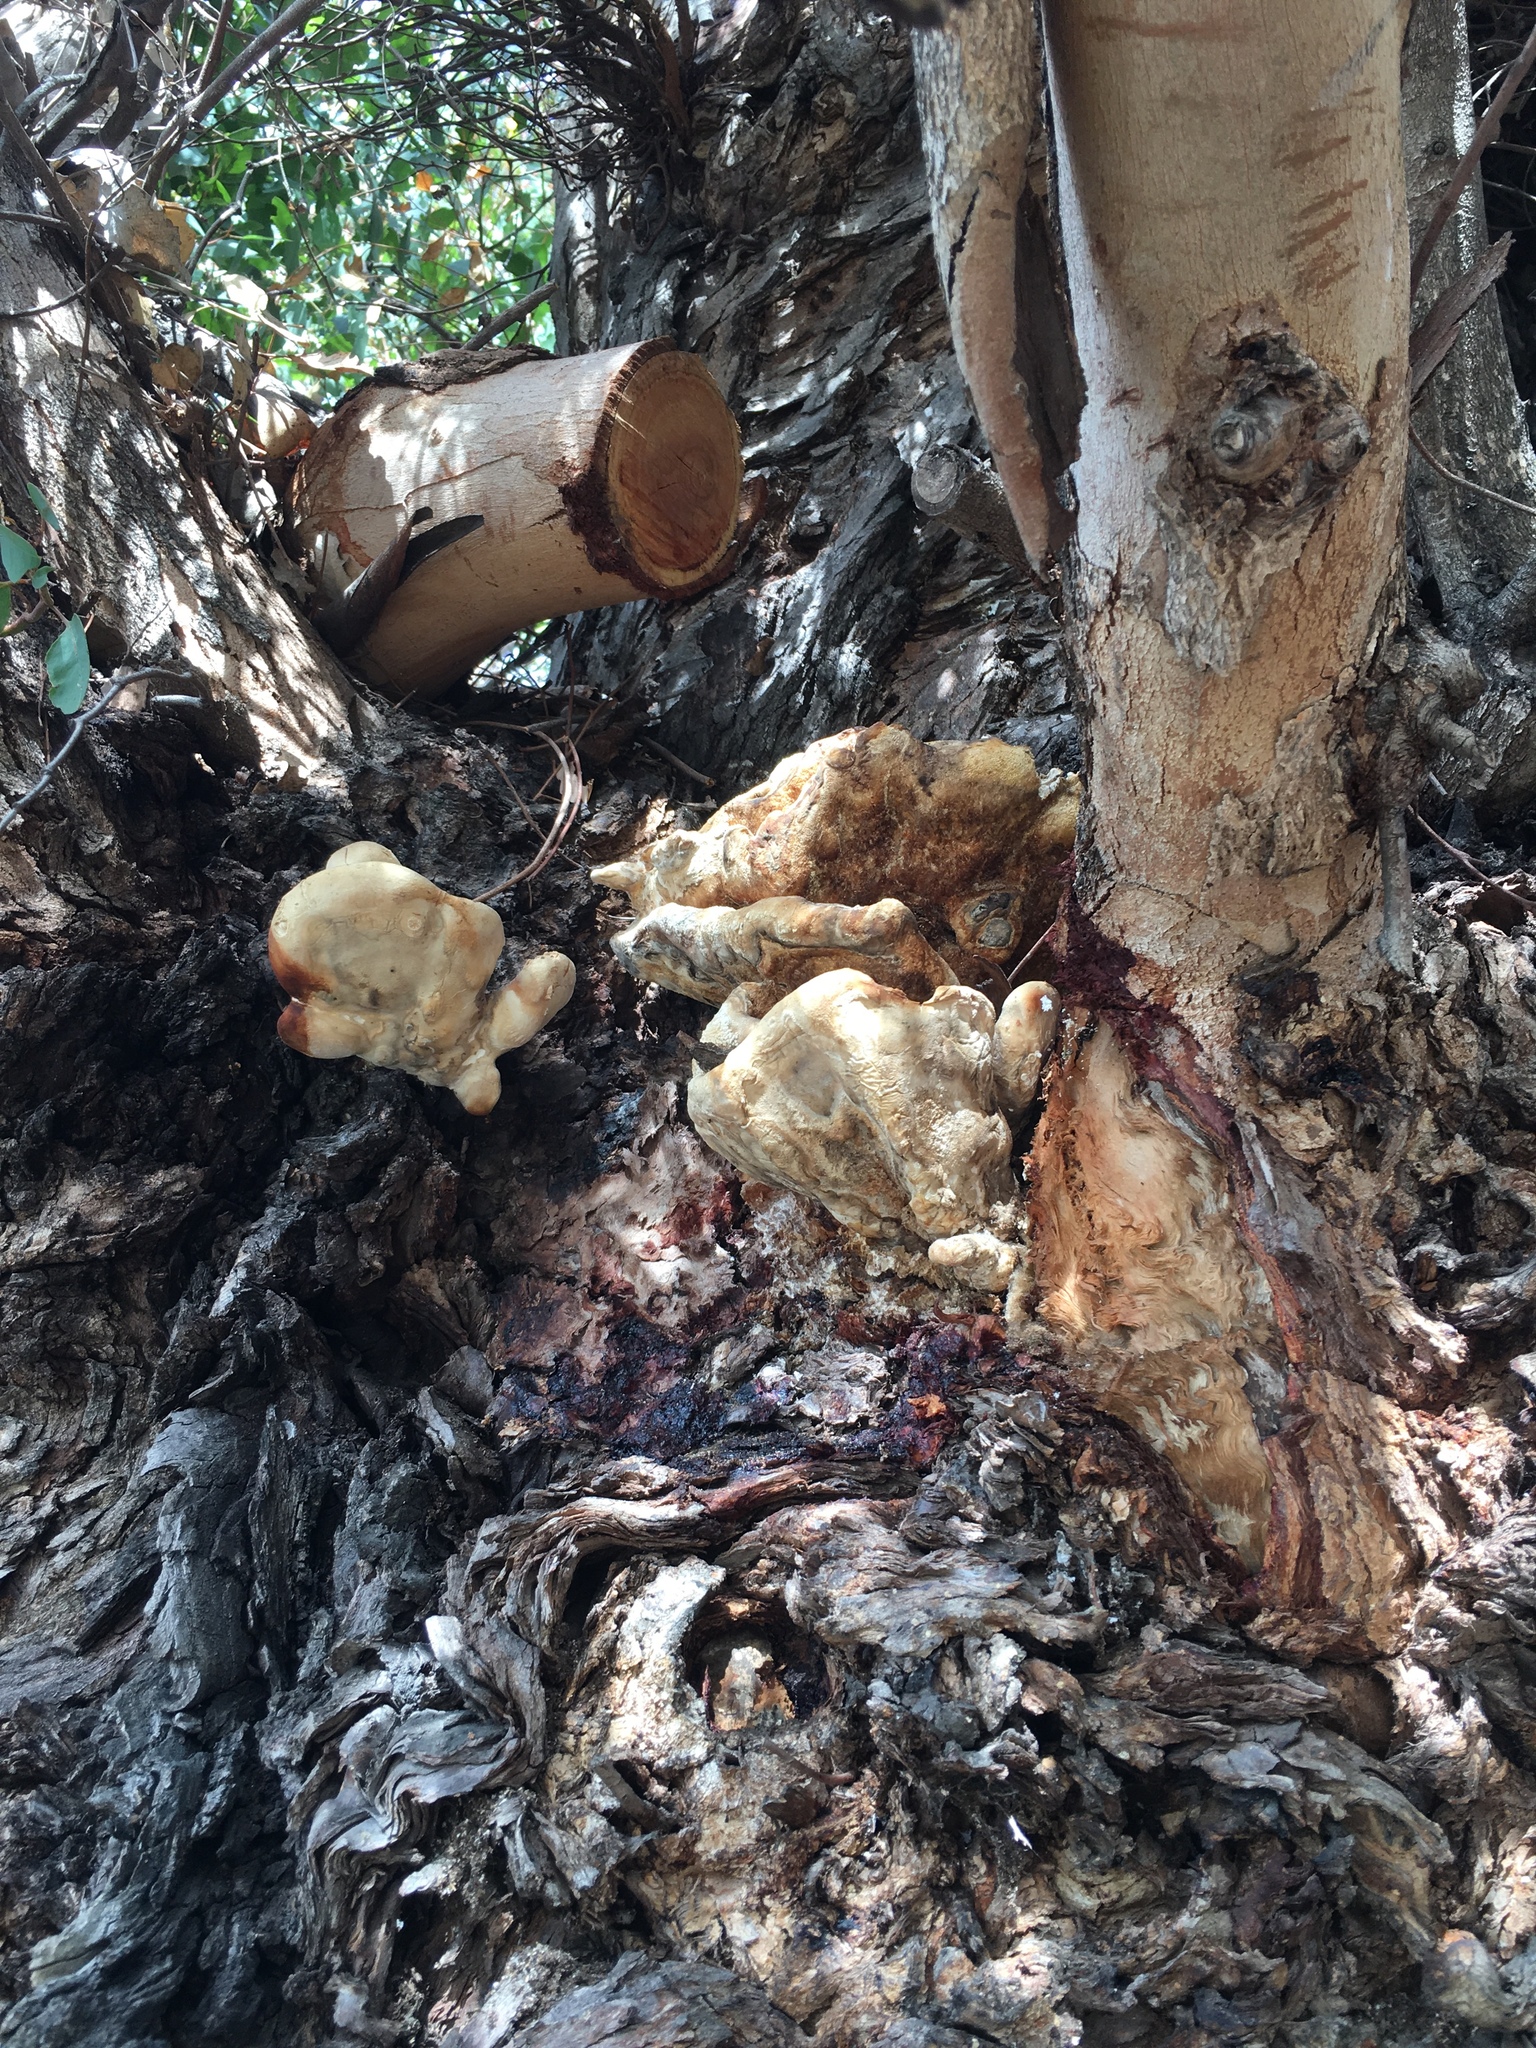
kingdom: Fungi
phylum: Basidiomycota
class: Agaricomycetes
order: Polyporales
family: Laetiporaceae
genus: Laetiporus
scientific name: Laetiporus gilbertsonii
